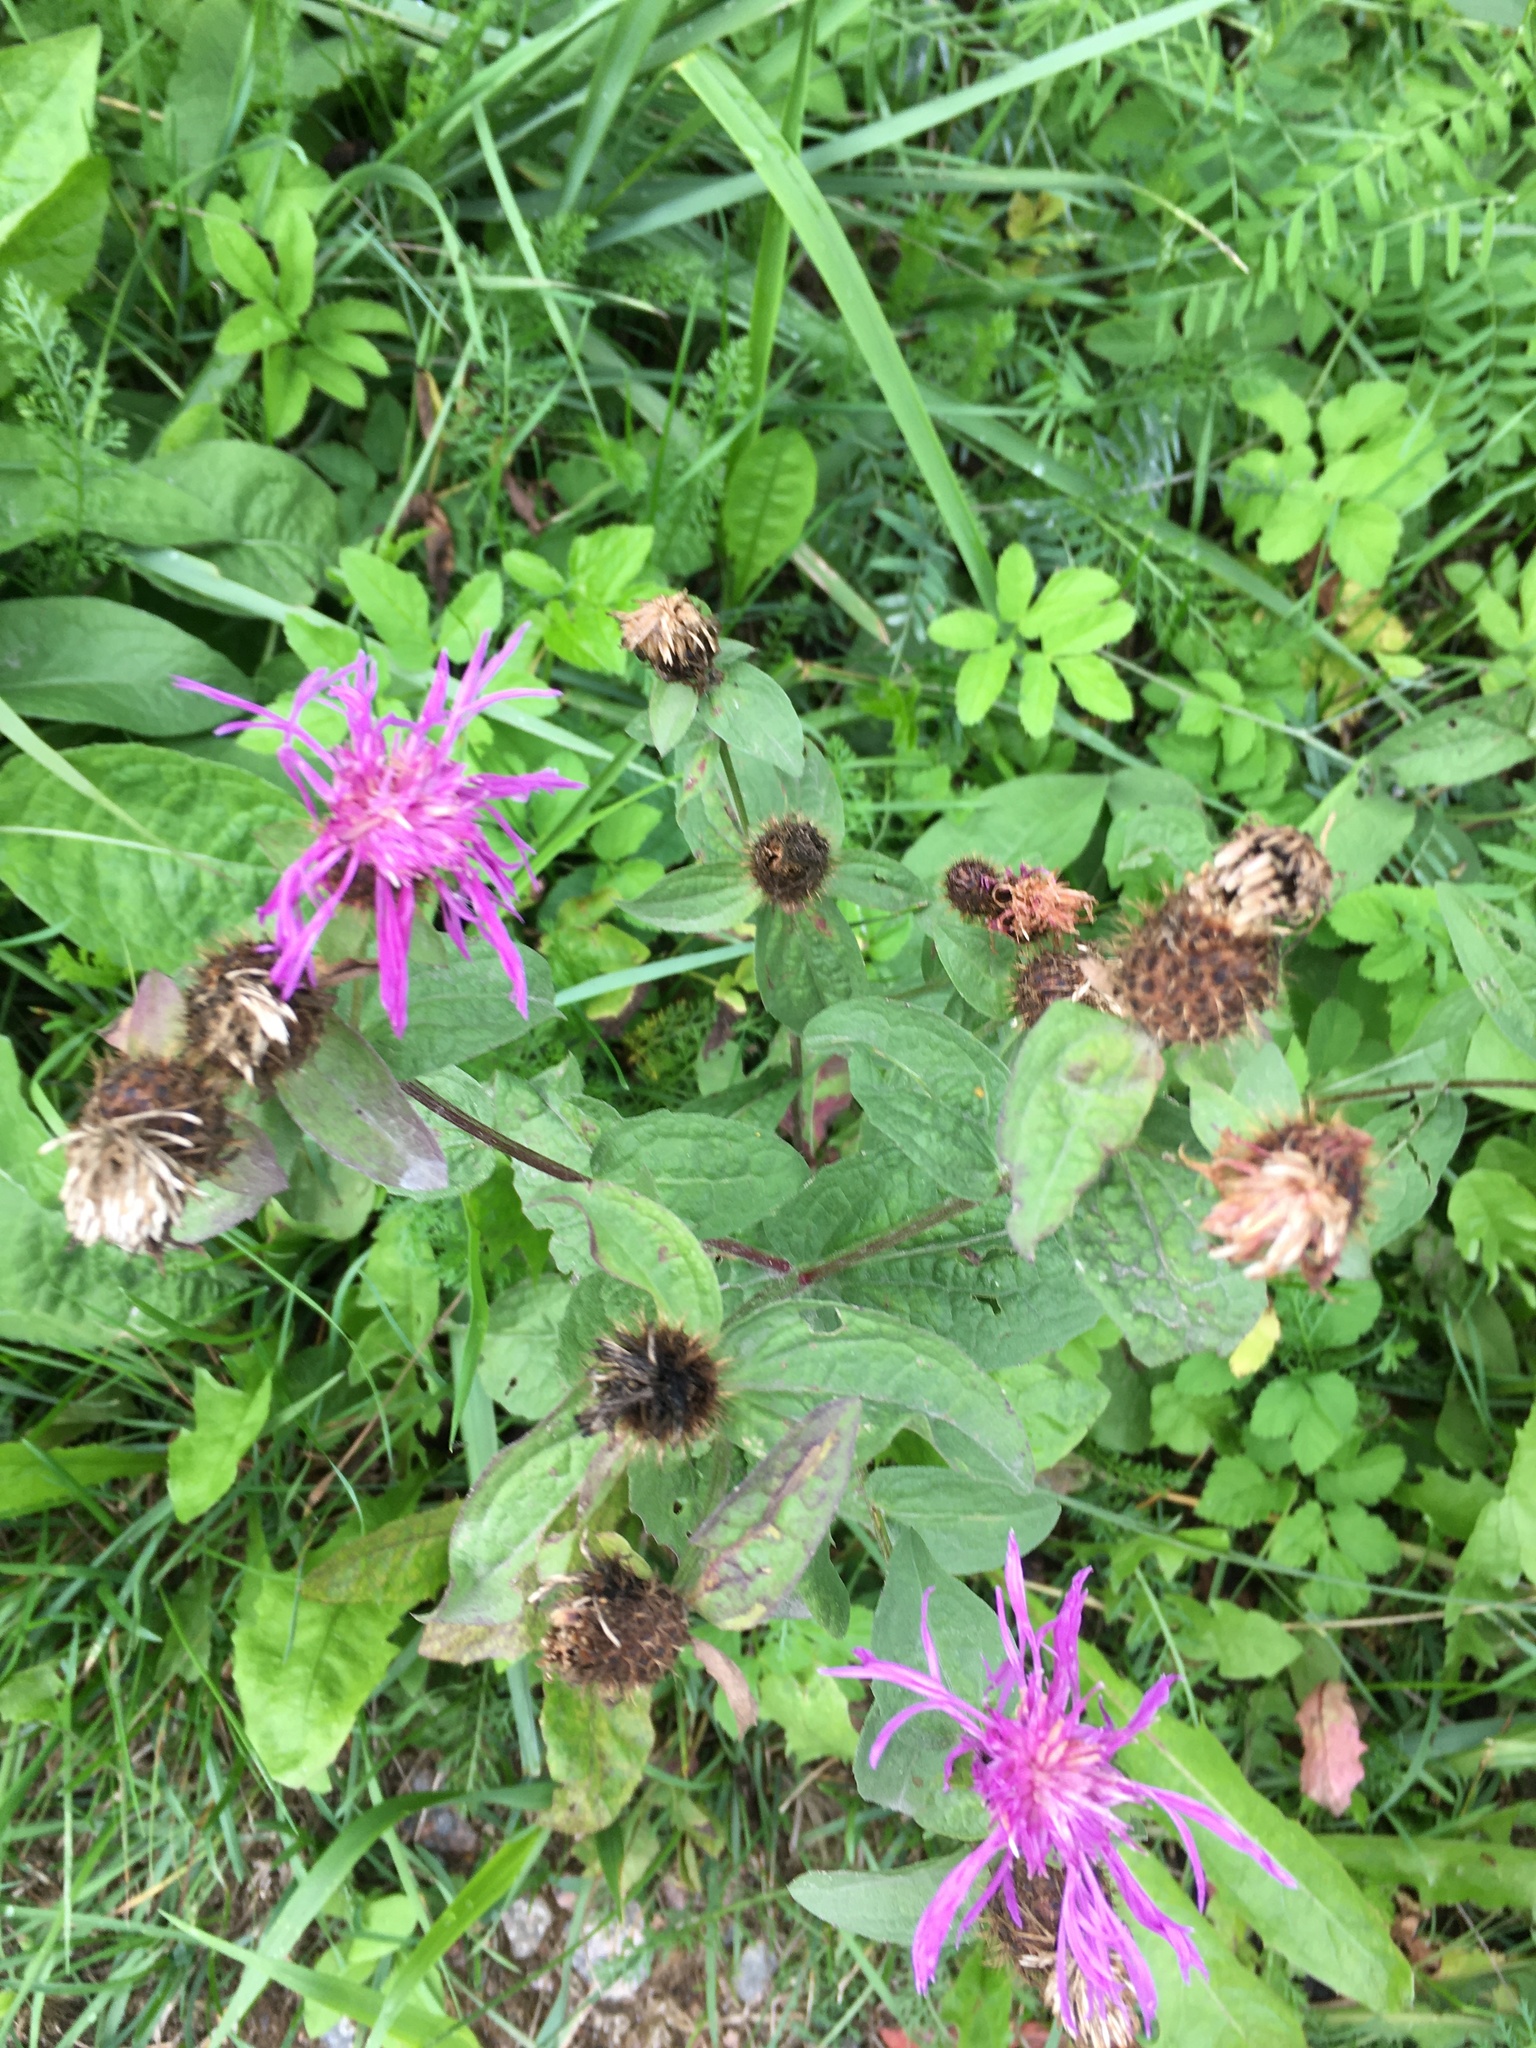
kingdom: Plantae
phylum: Tracheophyta
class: Magnoliopsida
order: Asterales
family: Asteraceae
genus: Centaurea
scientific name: Centaurea phrygia
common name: Wig knapweed
